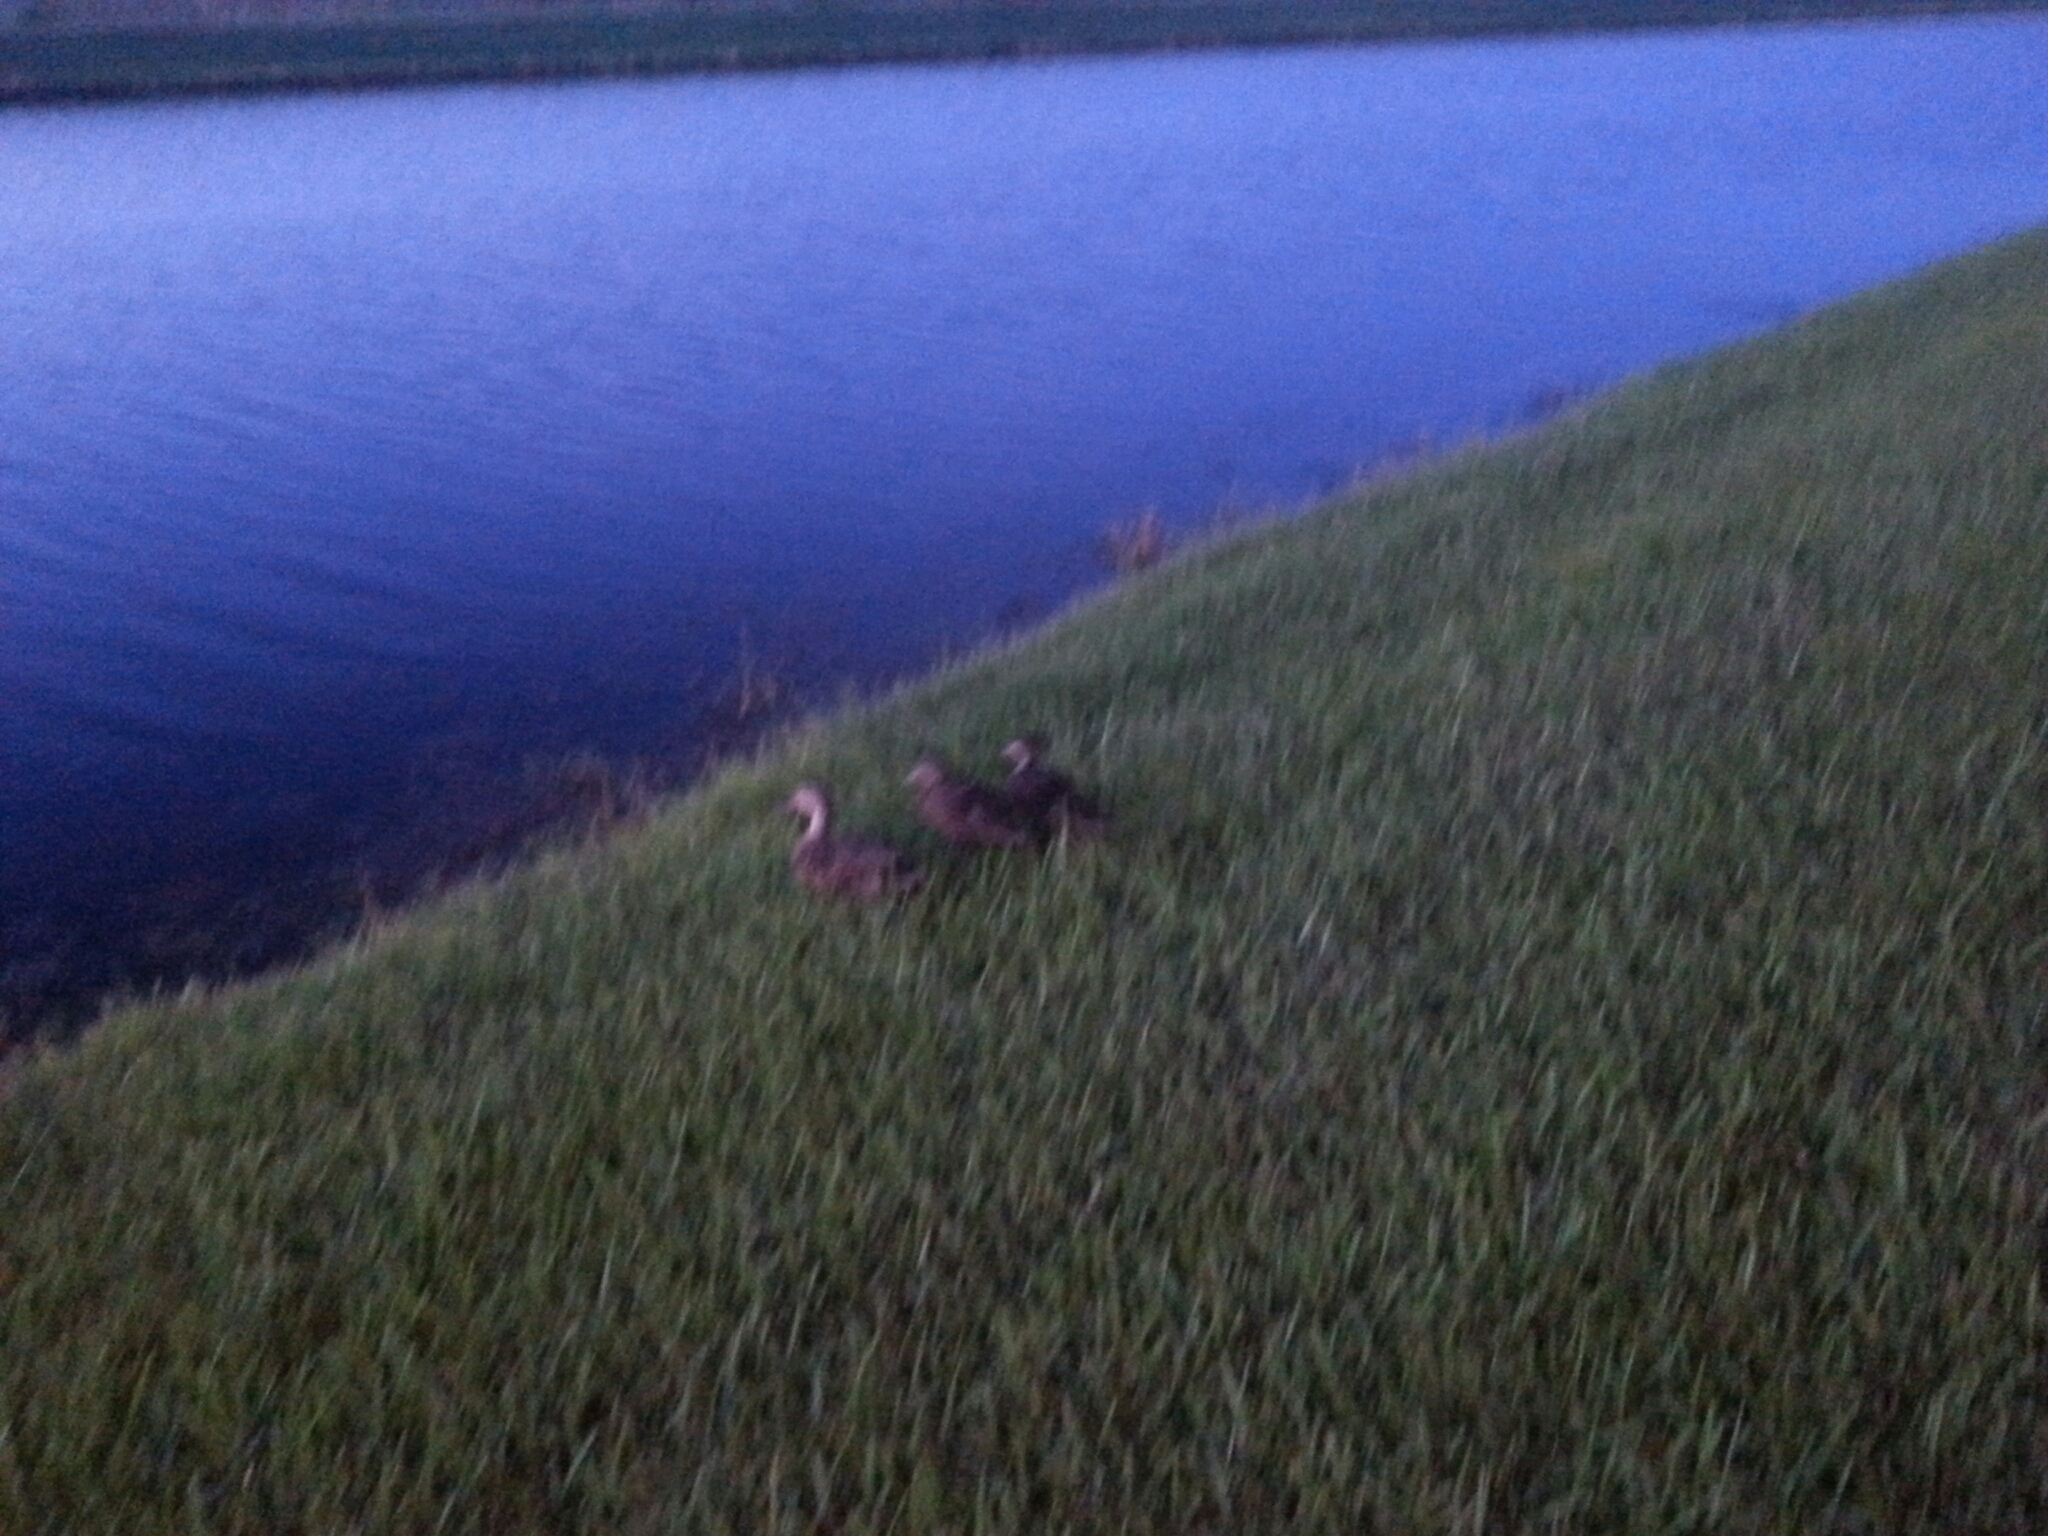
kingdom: Animalia
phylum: Chordata
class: Aves
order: Anseriformes
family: Anatidae
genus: Anas
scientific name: Anas
